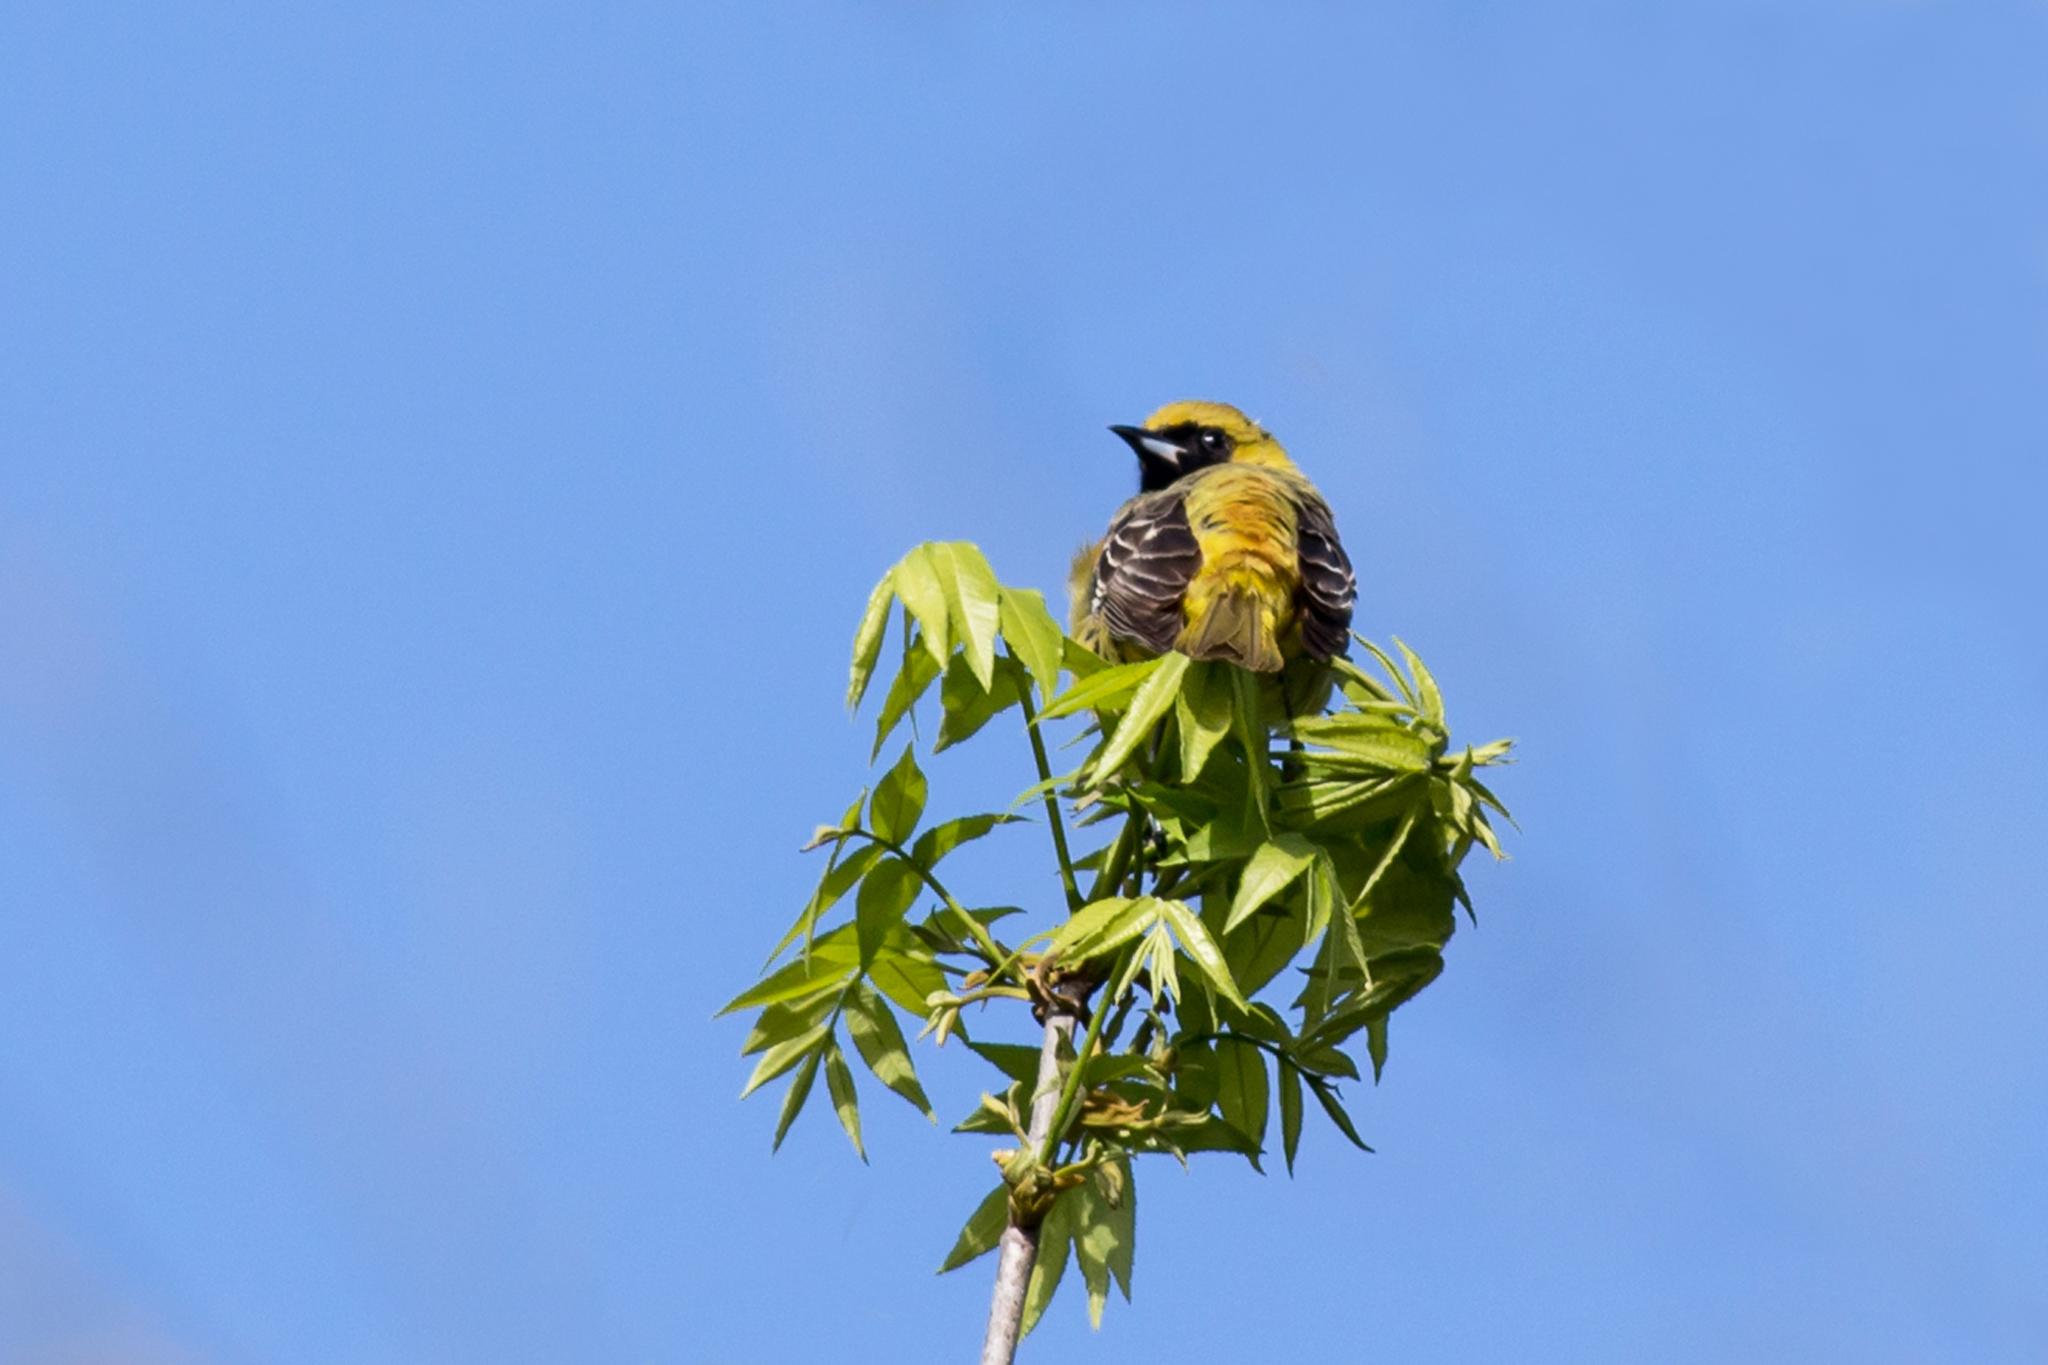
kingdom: Animalia
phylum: Chordata
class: Aves
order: Passeriformes
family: Icteridae
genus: Icterus
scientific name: Icterus spurius
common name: Orchard oriole
